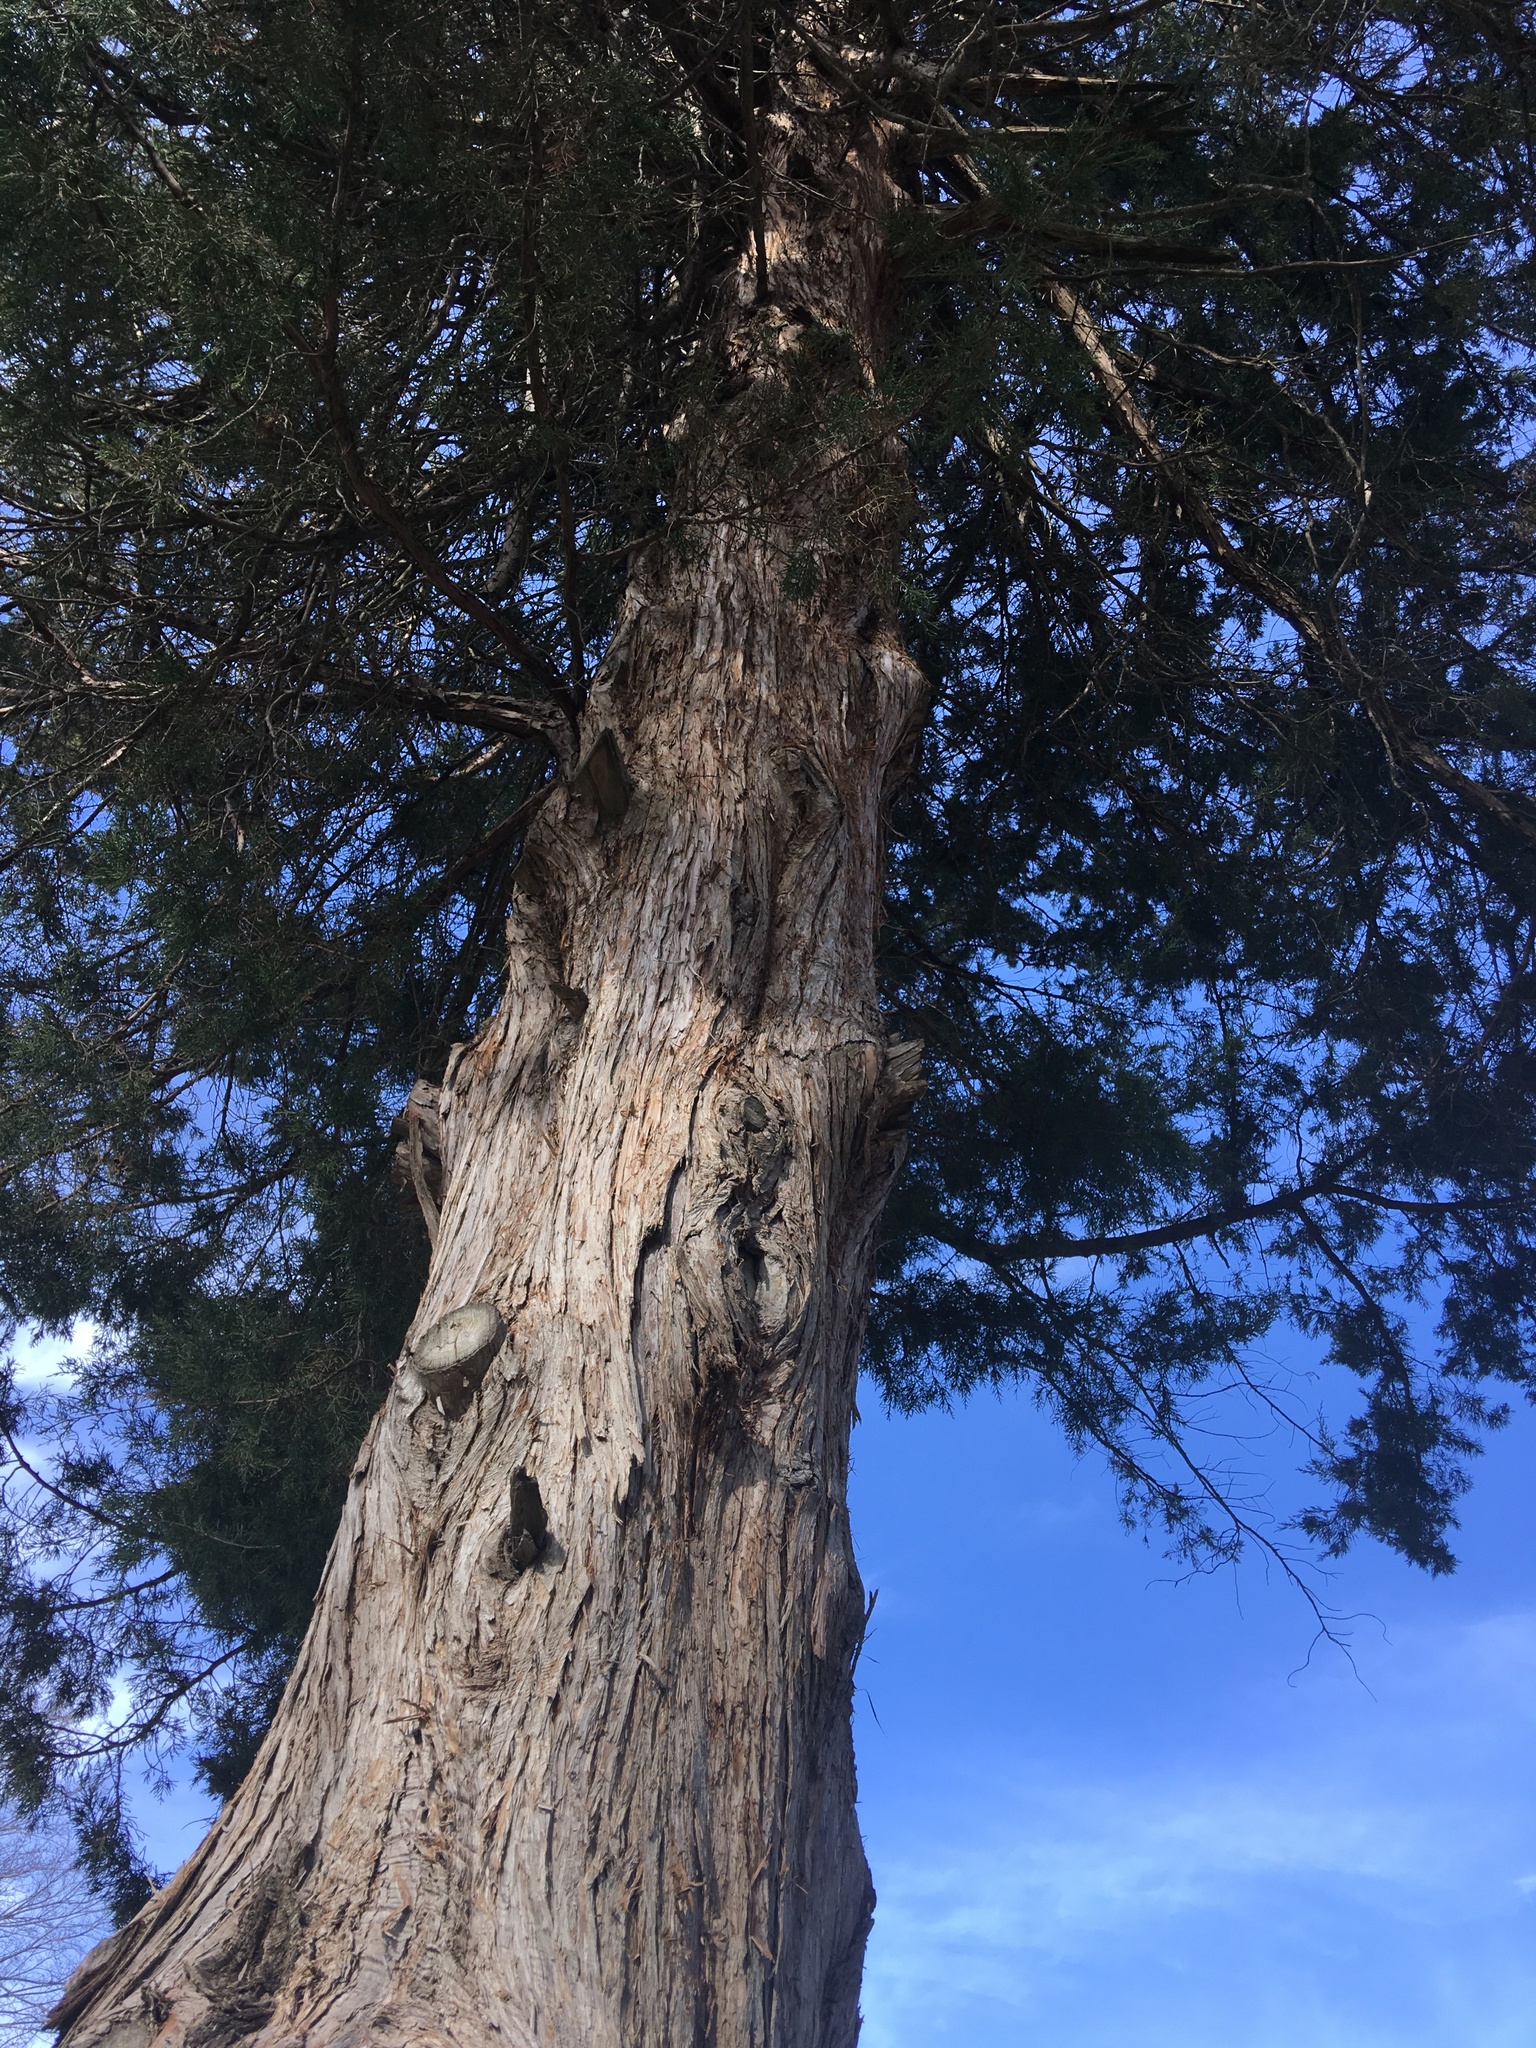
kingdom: Plantae
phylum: Tracheophyta
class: Pinopsida
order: Pinales
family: Cupressaceae
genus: Juniperus
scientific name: Juniperus virginiana
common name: Red juniper
